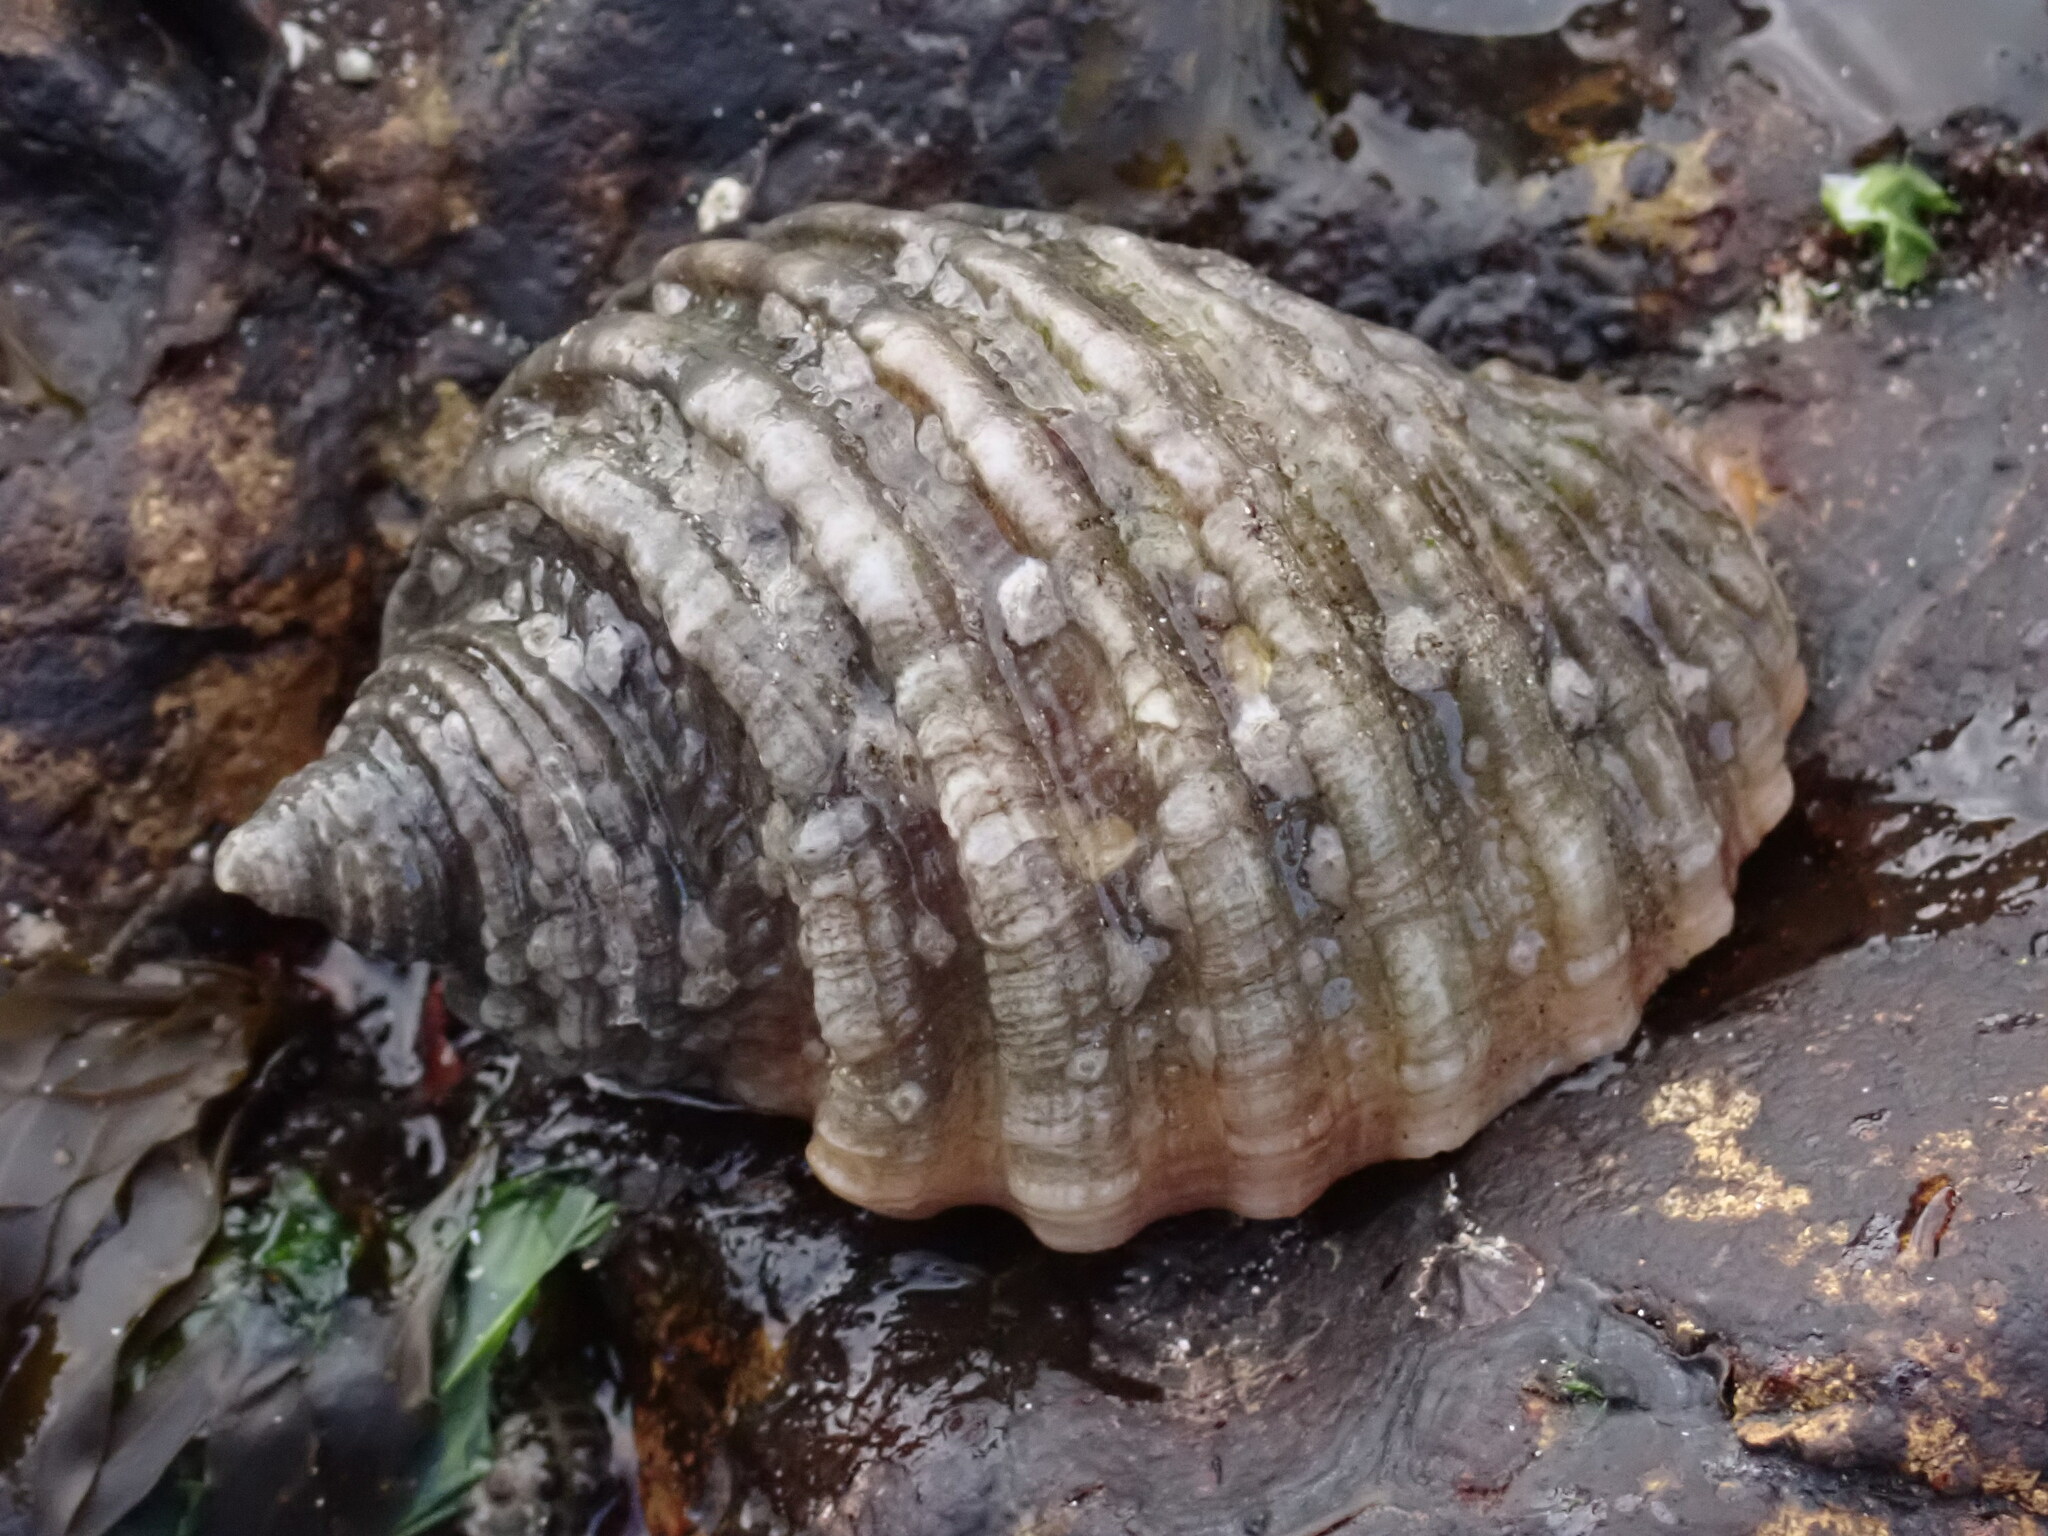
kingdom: Animalia
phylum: Mollusca
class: Gastropoda
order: Neogastropoda
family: Muricidae
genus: Dicathais
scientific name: Dicathais orbita
